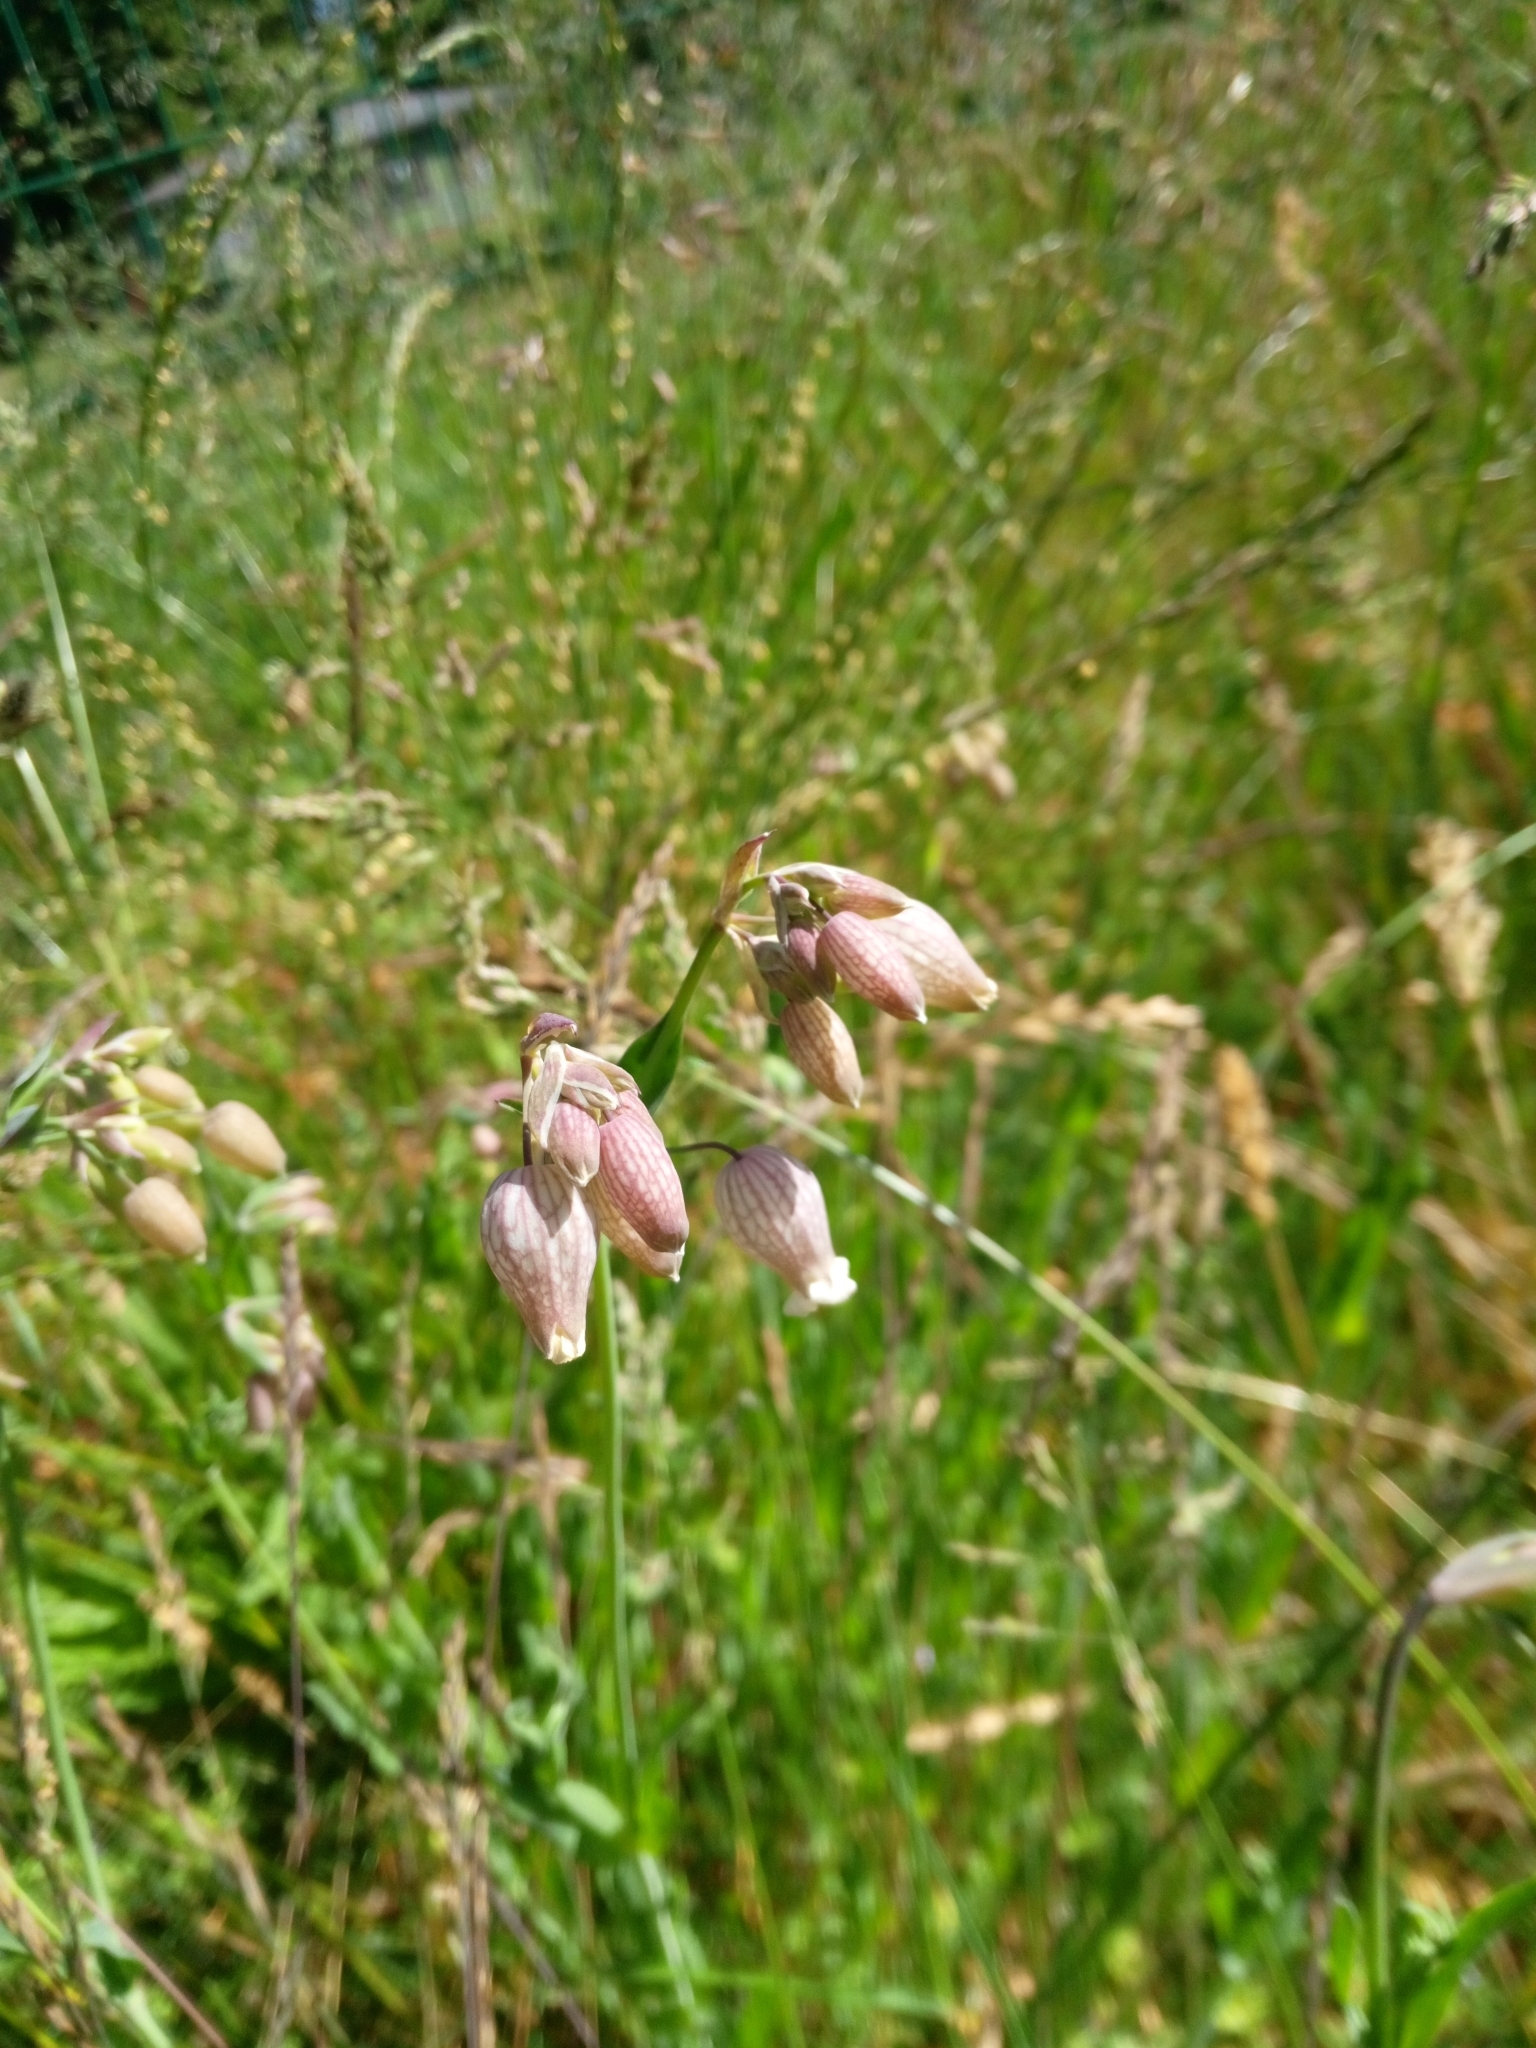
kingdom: Plantae
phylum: Tracheophyta
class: Magnoliopsida
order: Caryophyllales
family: Caryophyllaceae
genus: Silene
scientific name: Silene vulgaris
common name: Bladder campion
